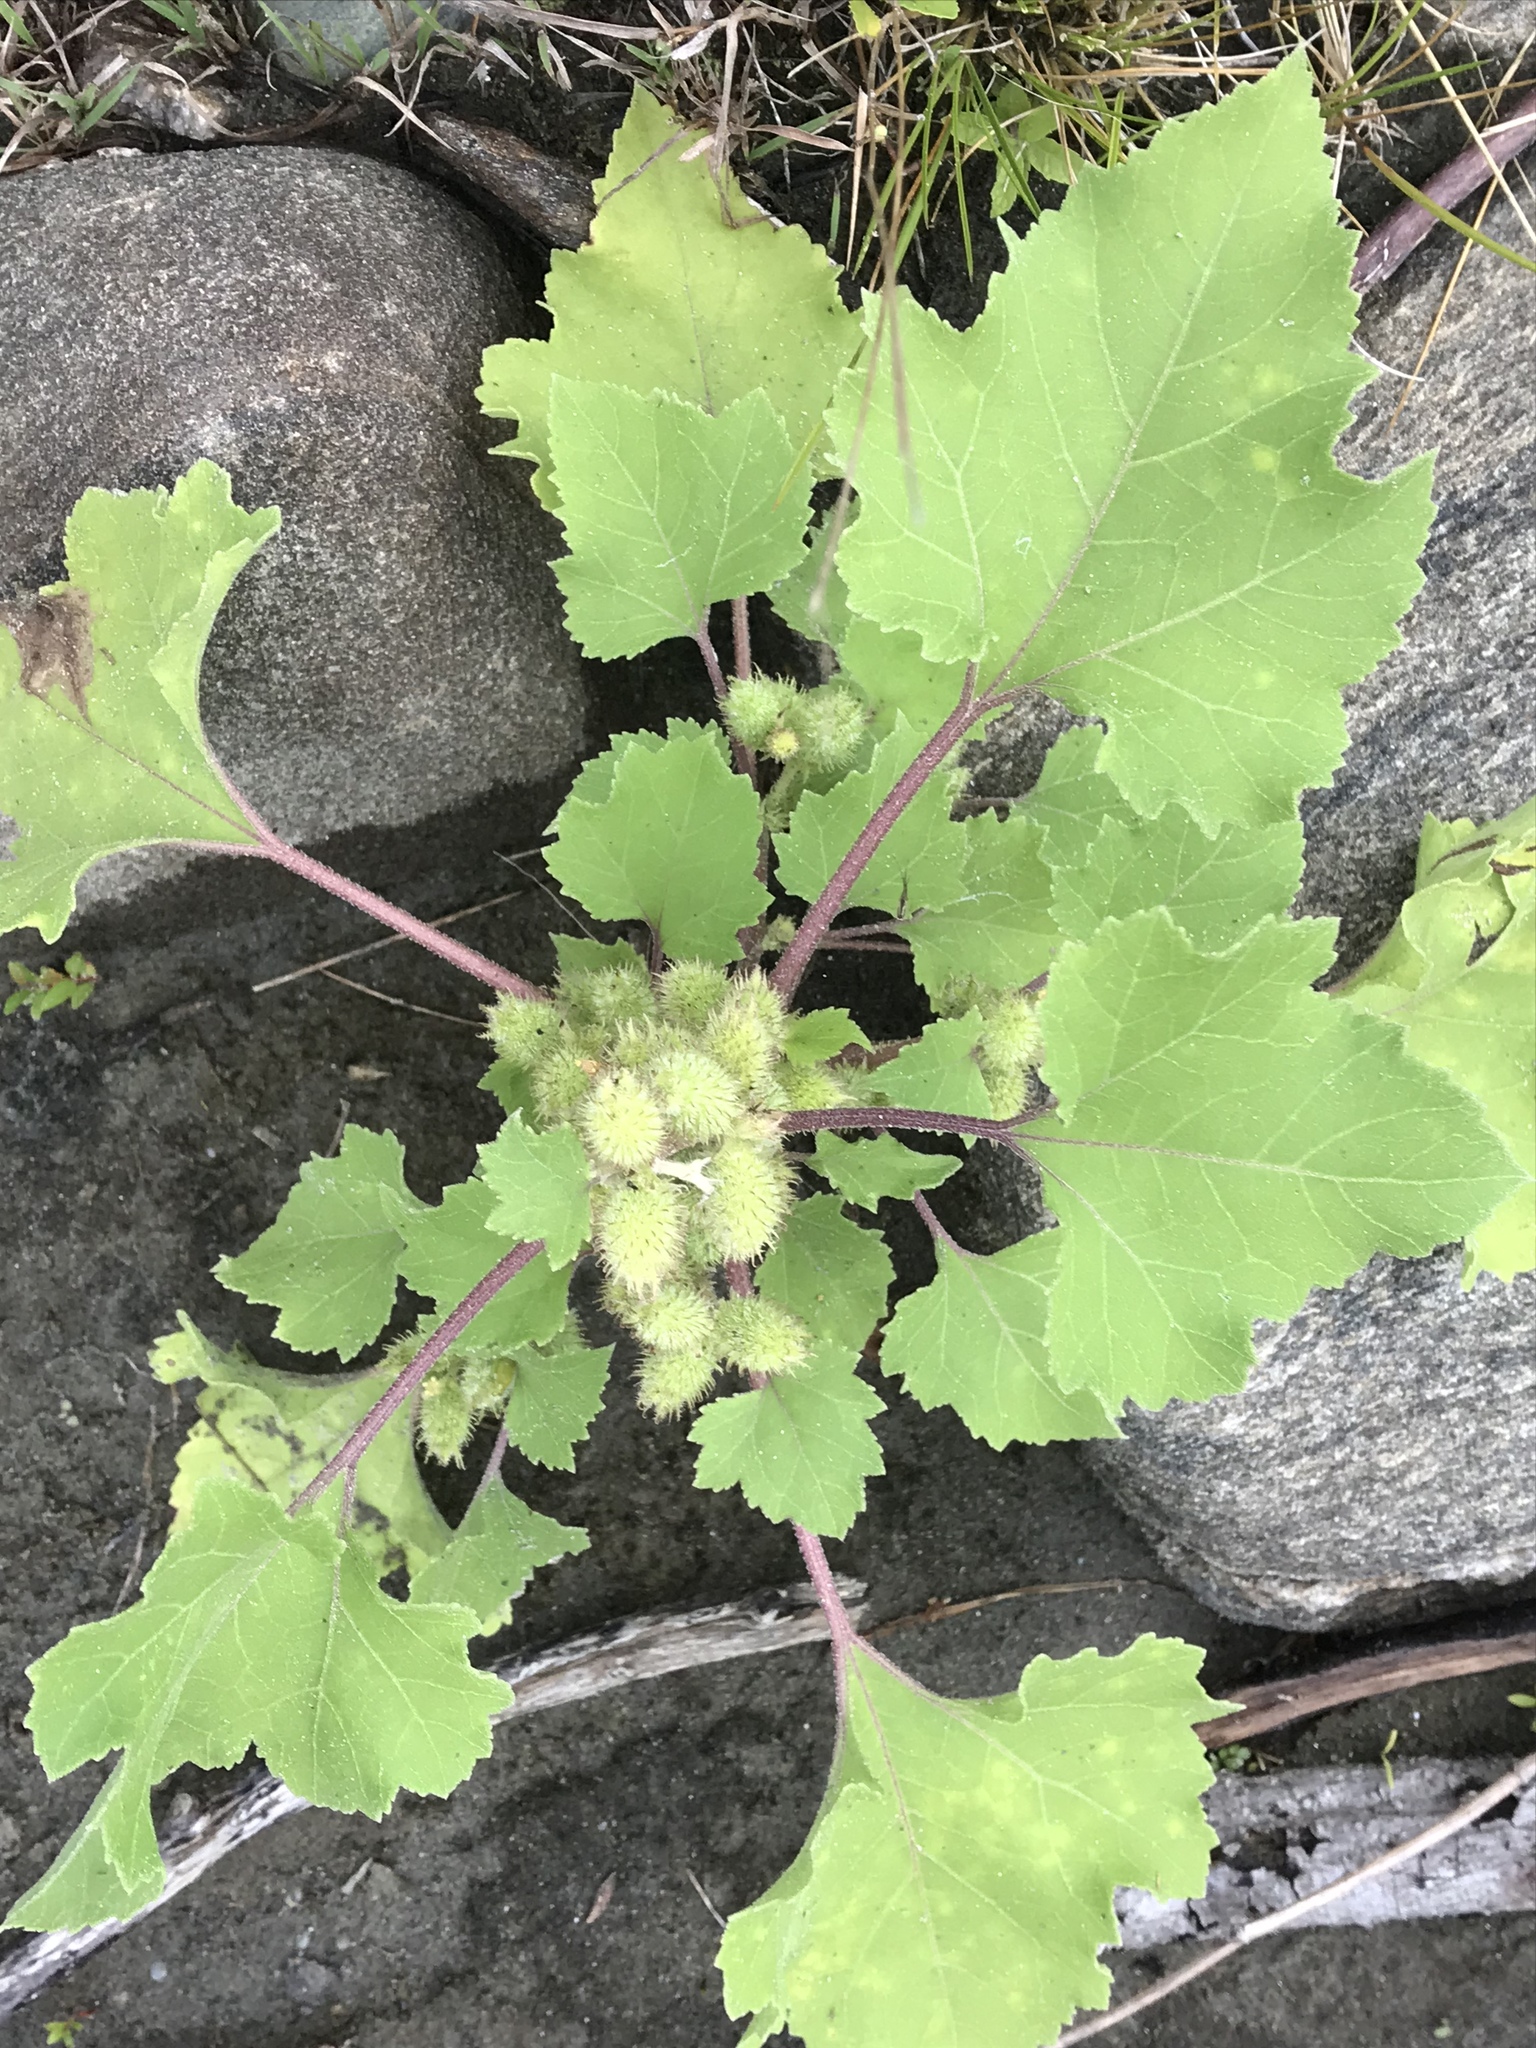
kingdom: Plantae
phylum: Tracheophyta
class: Magnoliopsida
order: Asterales
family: Asteraceae
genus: Xanthium
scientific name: Xanthium strumarium
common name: Rough cocklebur
